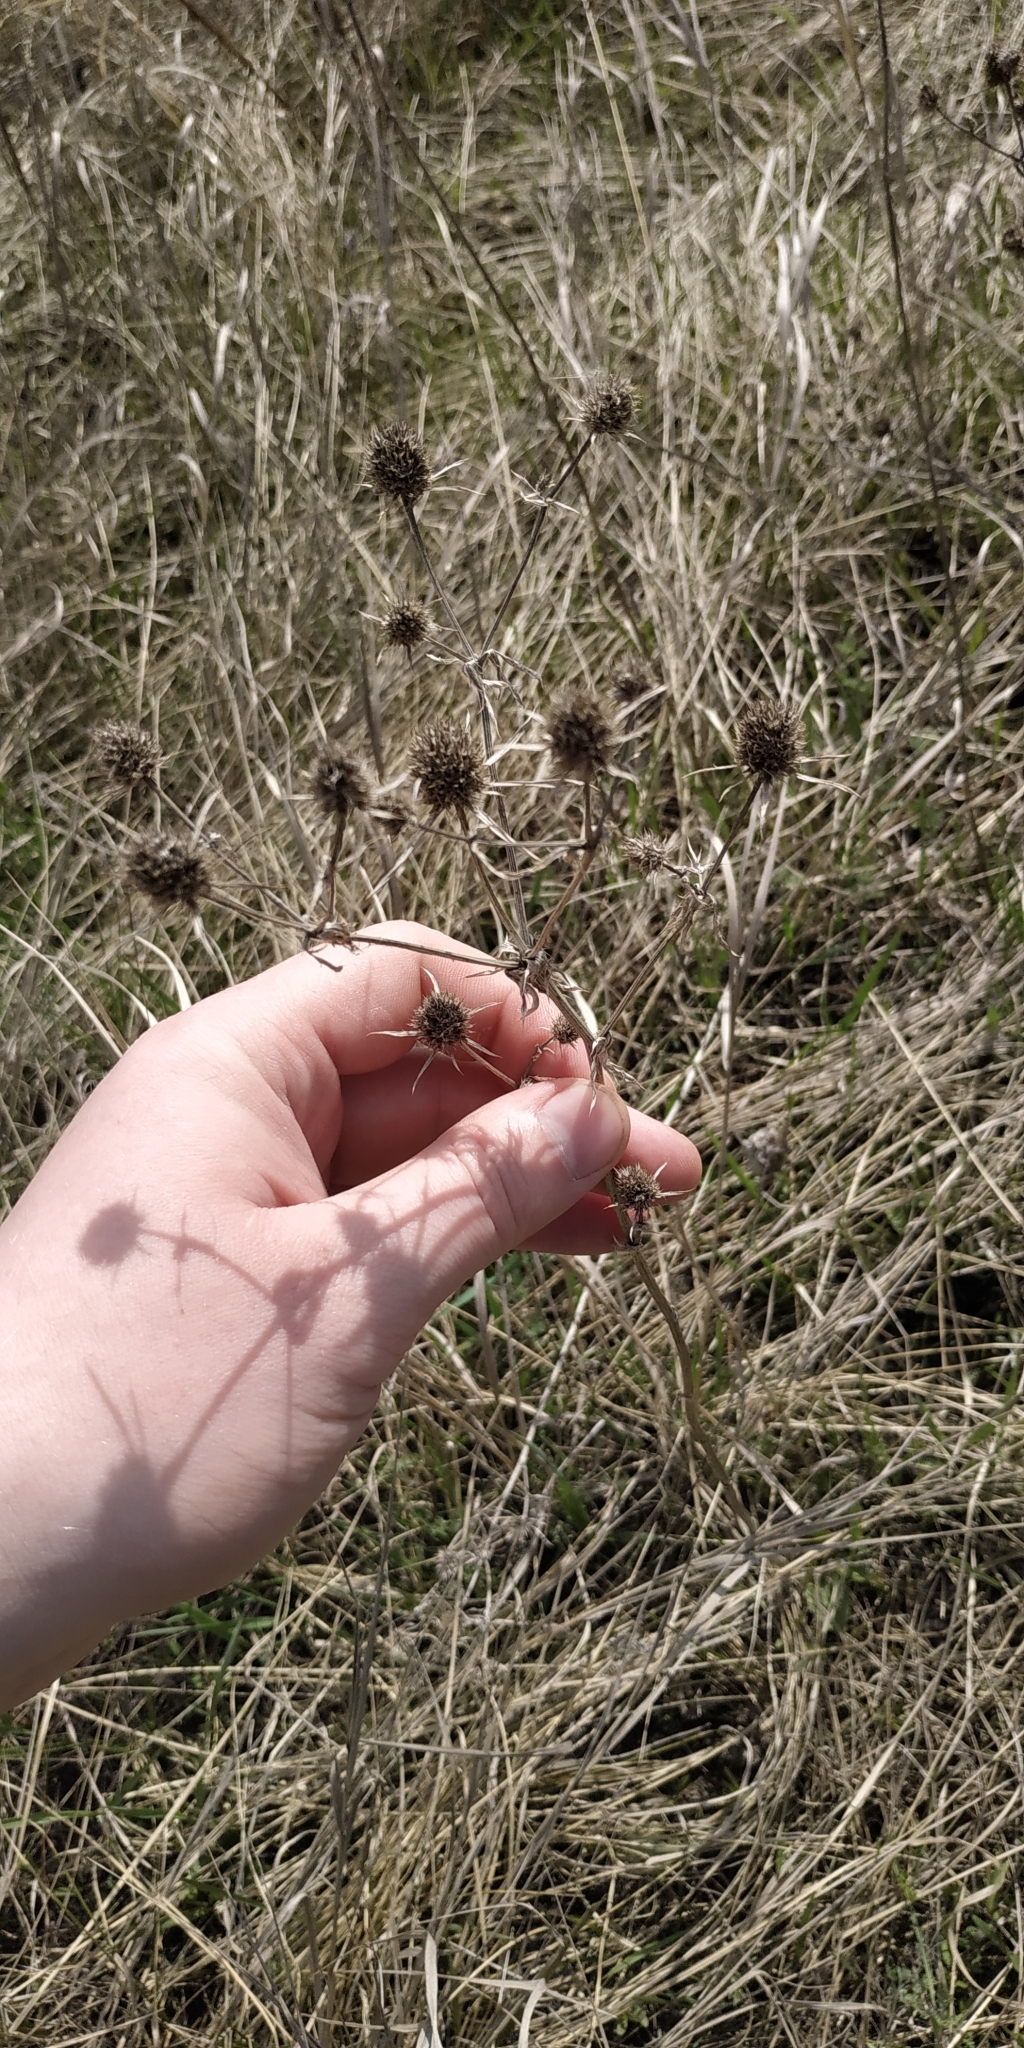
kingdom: Plantae
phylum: Tracheophyta
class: Magnoliopsida
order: Apiales
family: Apiaceae
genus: Eryngium
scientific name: Eryngium planum
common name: Blue eryngo
